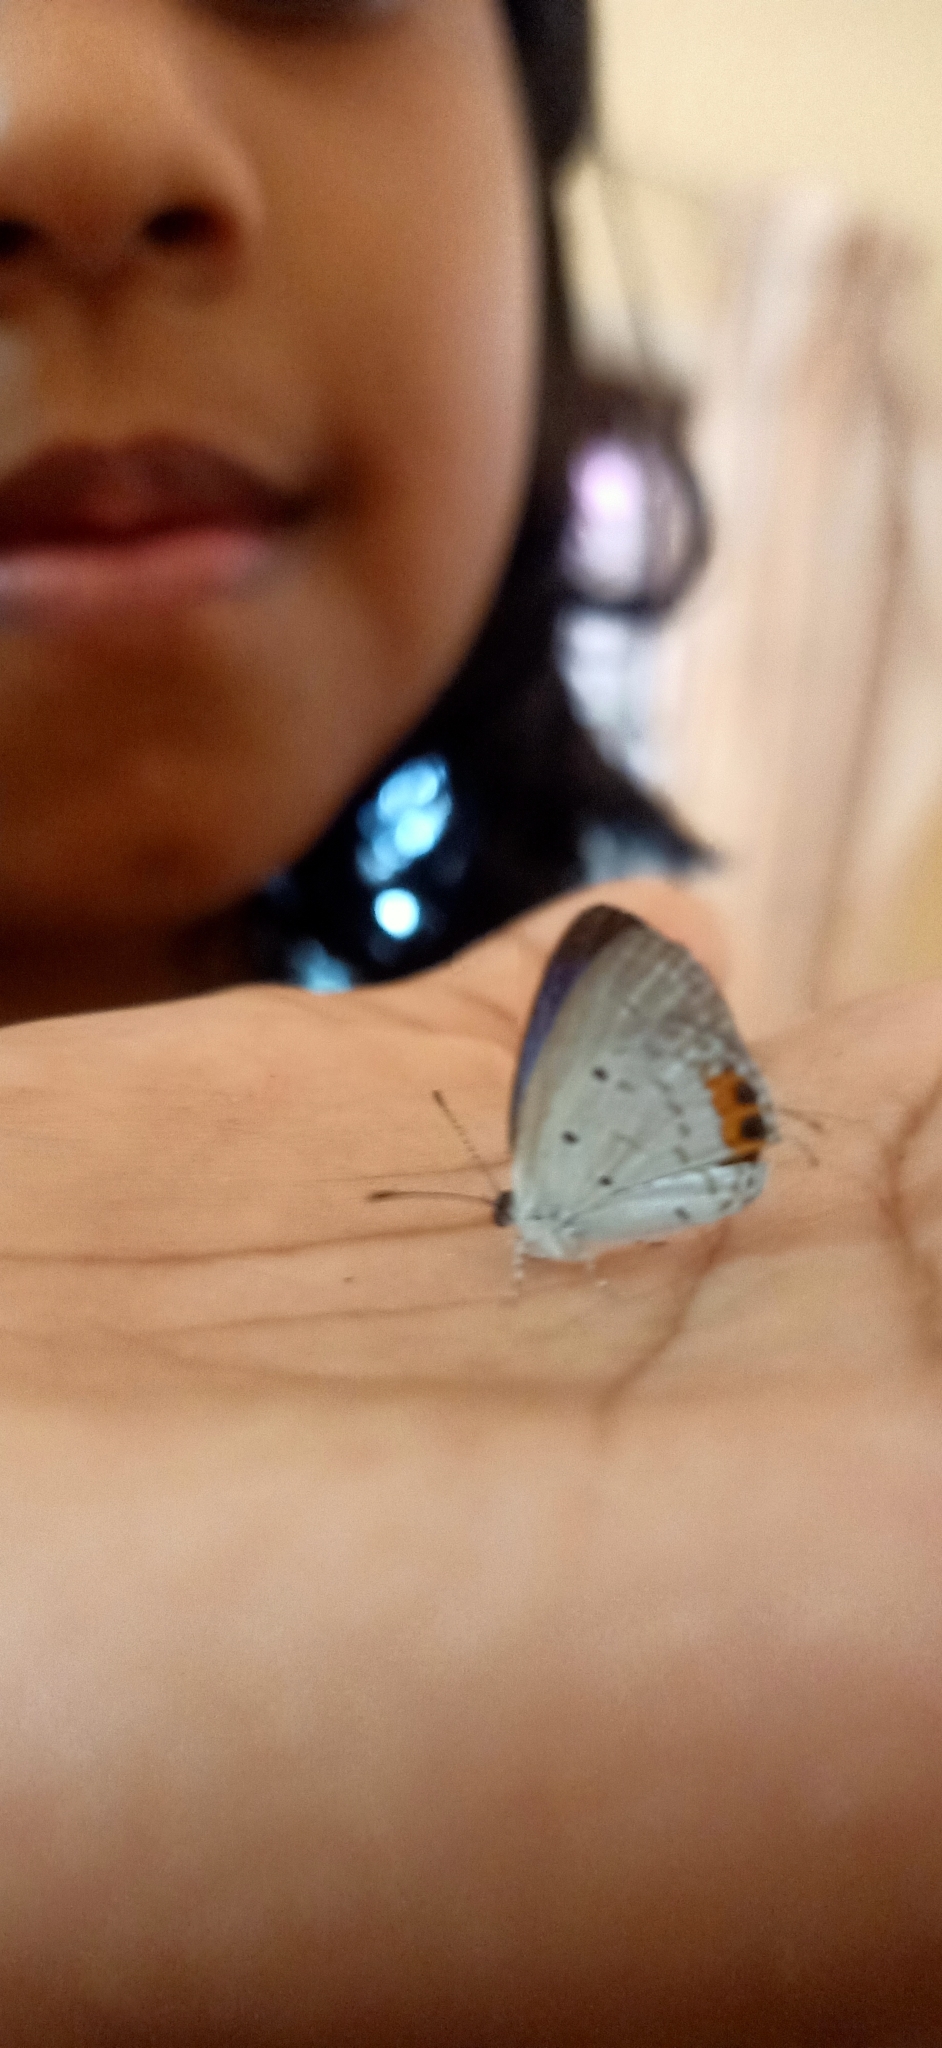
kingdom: Animalia
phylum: Arthropoda
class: Insecta
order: Lepidoptera
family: Lycaenidae
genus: Everes
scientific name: Everes lacturnus
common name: Orange-tipped pea-blue
